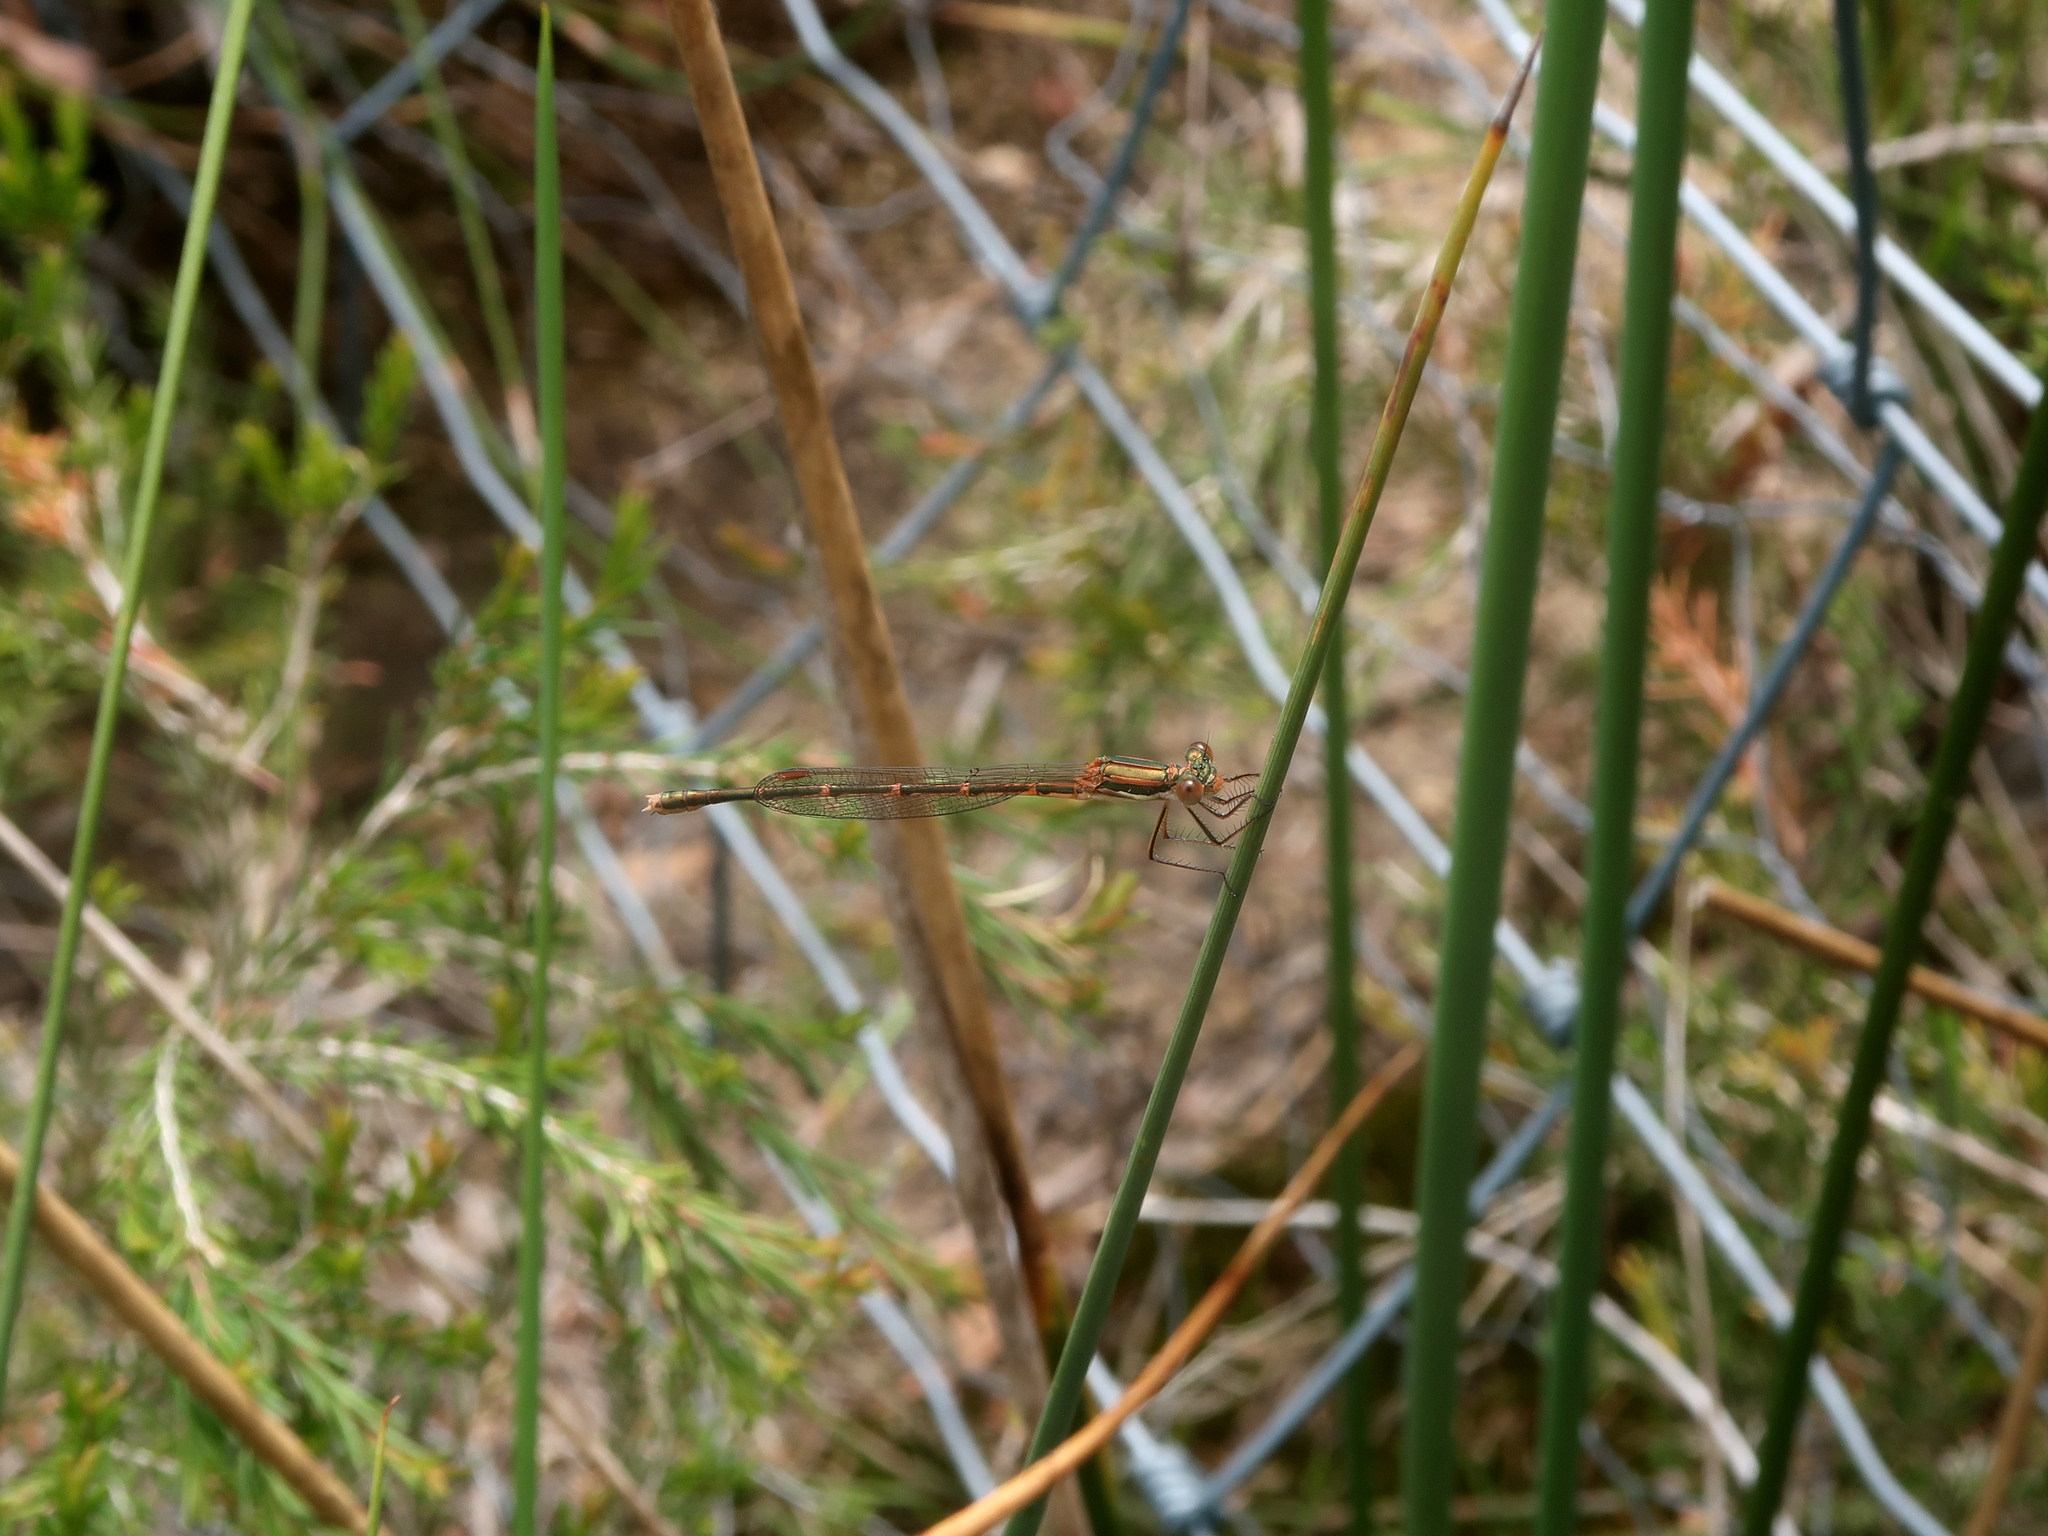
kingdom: Animalia
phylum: Arthropoda
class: Insecta
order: Odonata
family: Lestidae
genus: Austrolestes
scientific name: Austrolestes analis
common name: Slender ringtail
